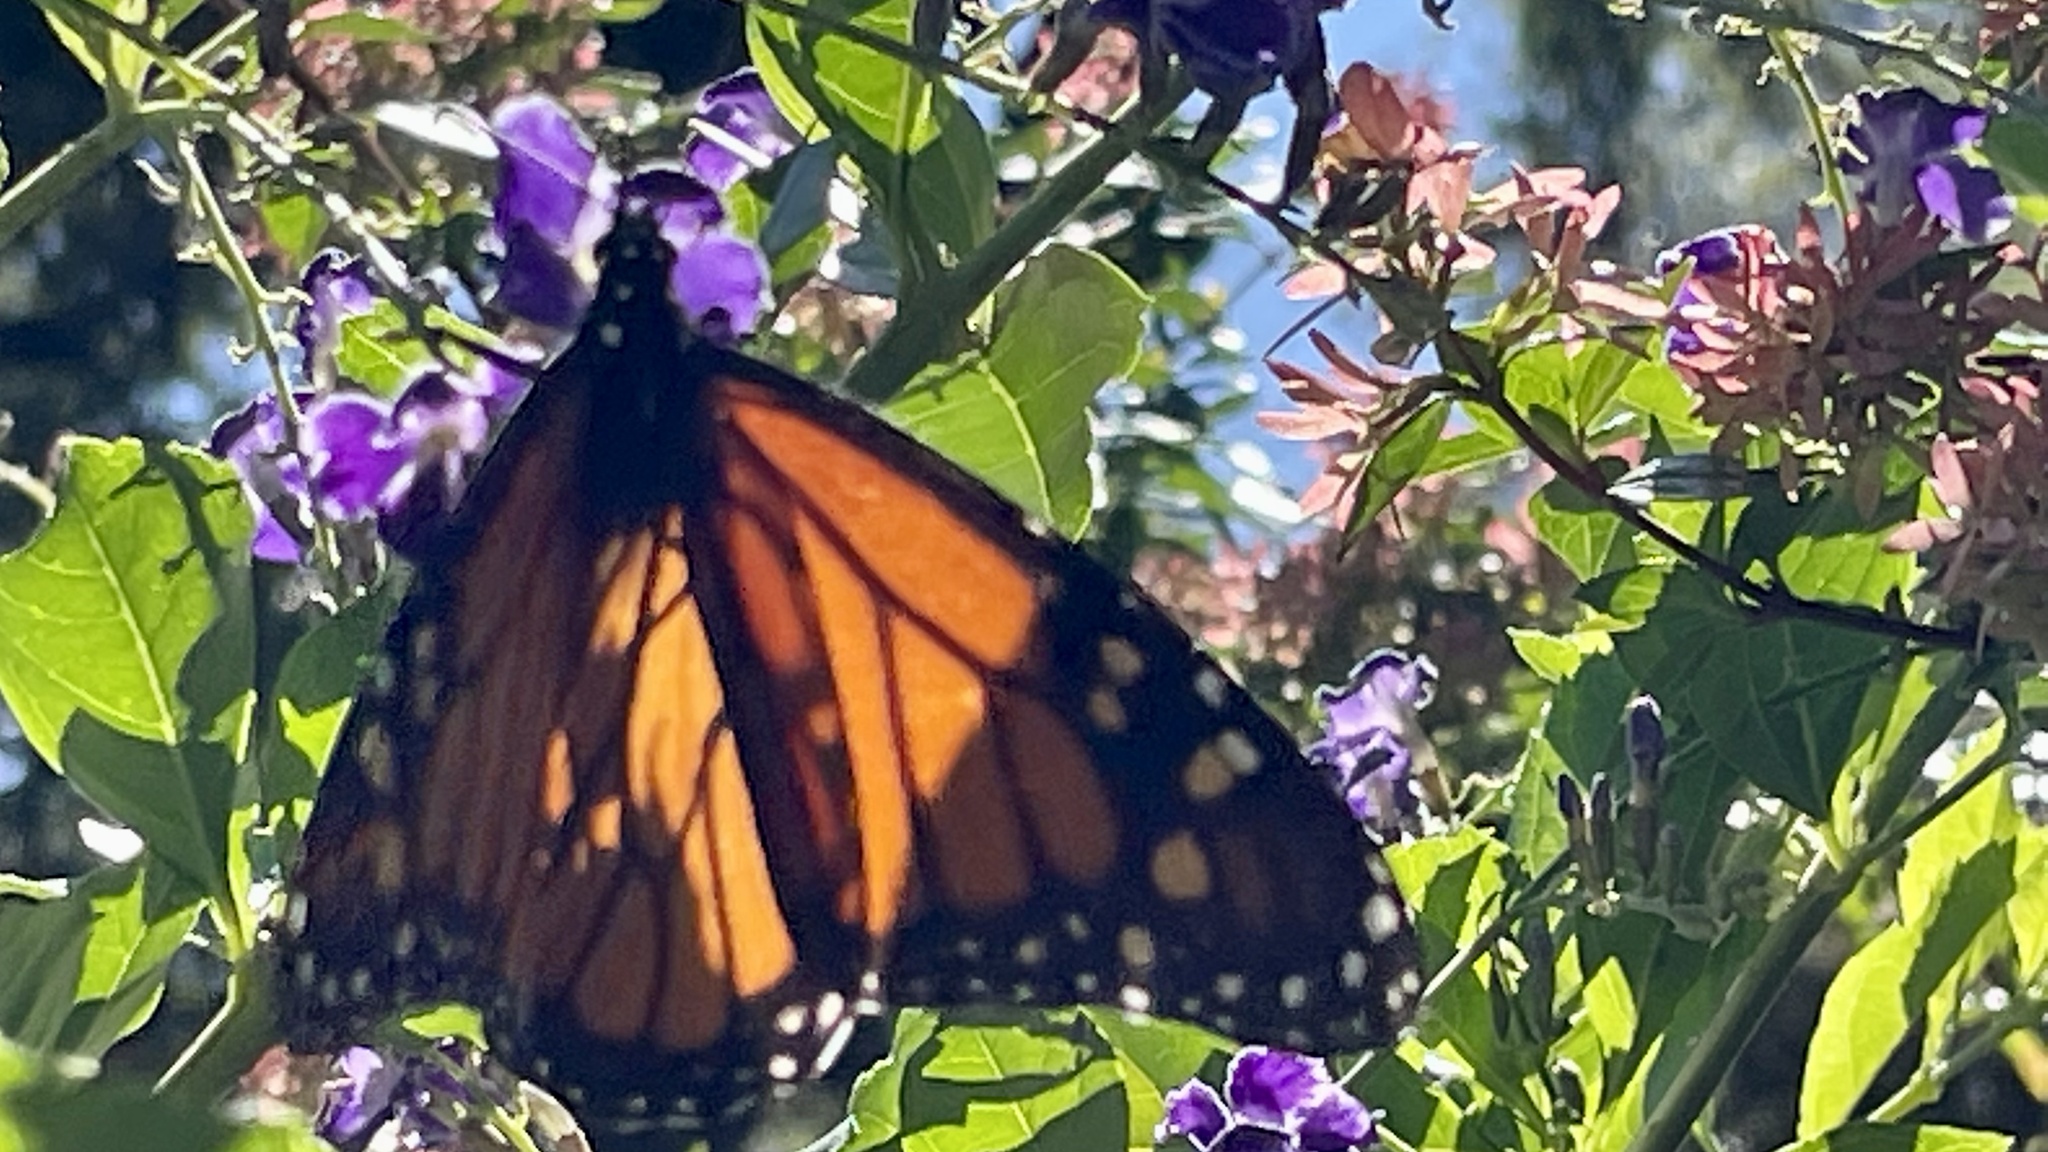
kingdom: Animalia
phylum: Arthropoda
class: Insecta
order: Lepidoptera
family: Nymphalidae
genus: Danaus
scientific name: Danaus plexippus
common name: Monarch
